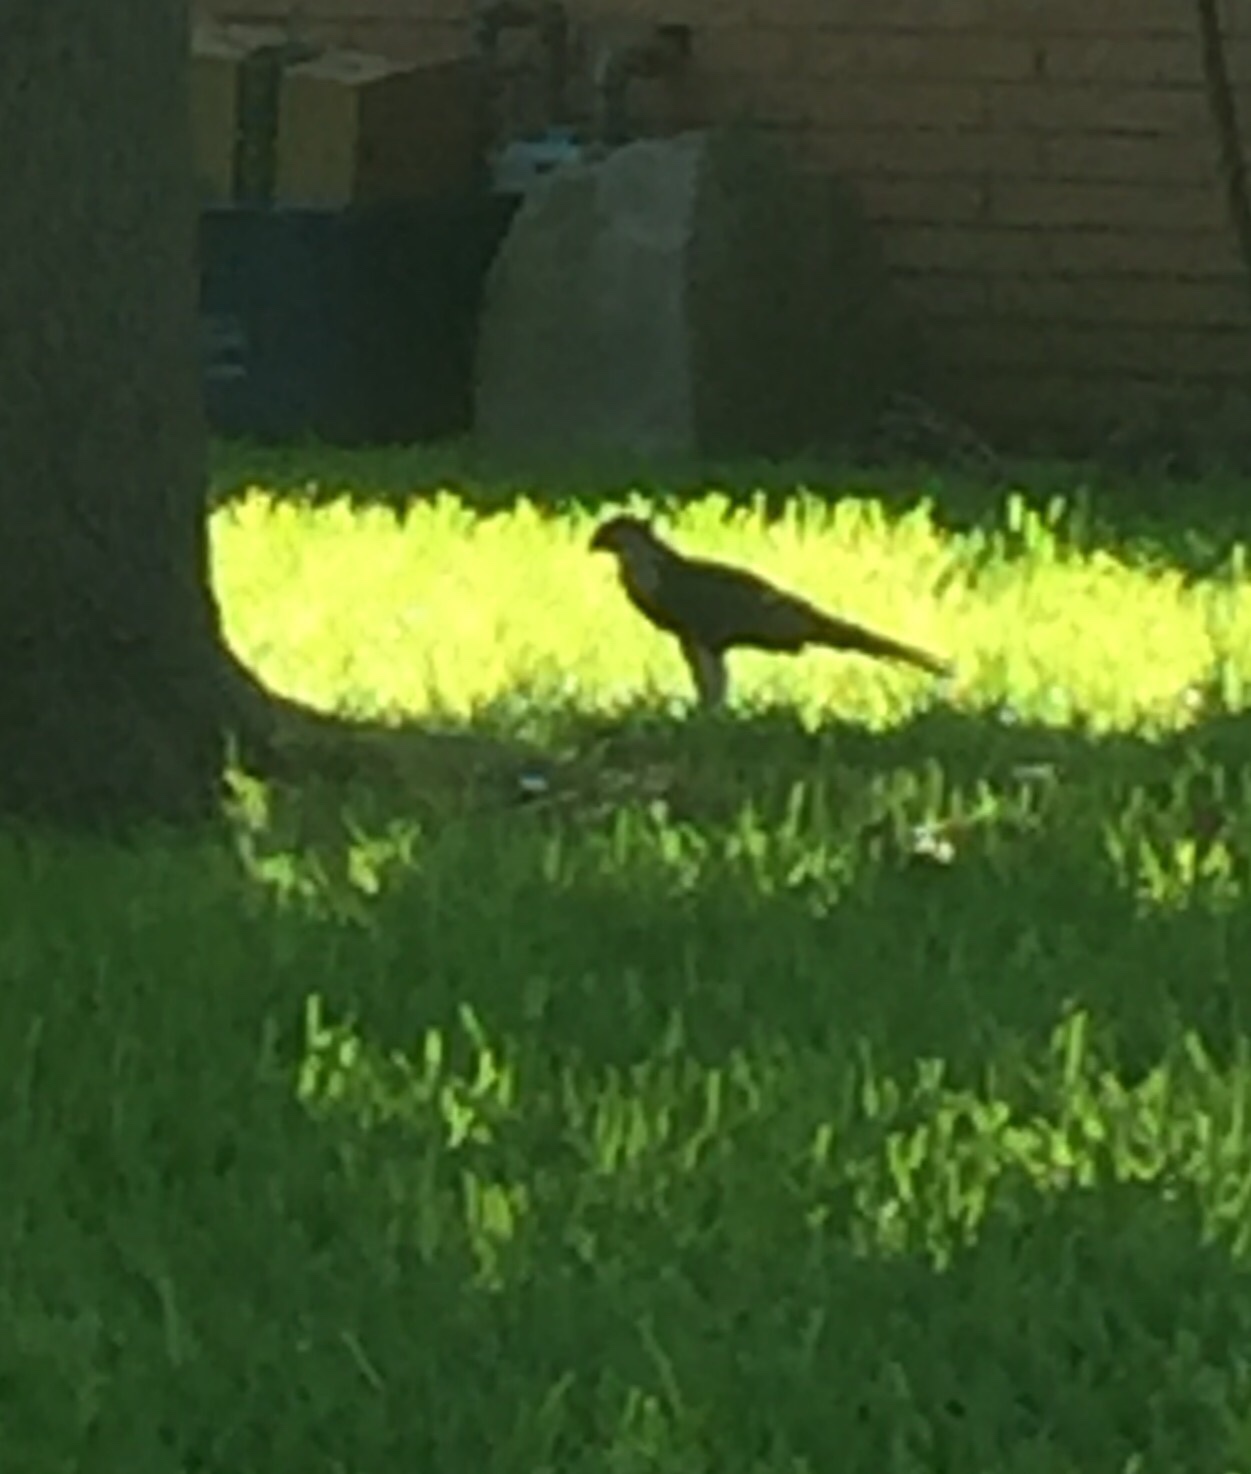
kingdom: Animalia
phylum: Chordata
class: Aves
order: Falconiformes
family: Falconidae
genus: Caracara
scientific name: Caracara plancus
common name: Southern caracara
